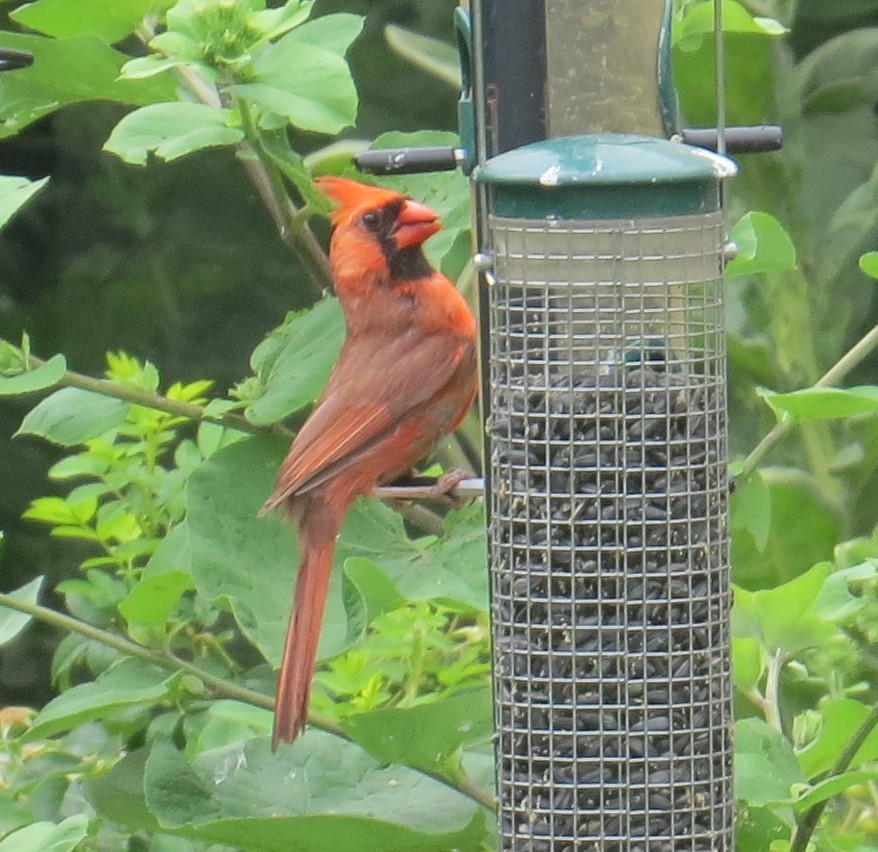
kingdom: Animalia
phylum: Chordata
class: Aves
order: Passeriformes
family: Cardinalidae
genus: Cardinalis
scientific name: Cardinalis cardinalis
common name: Northern cardinal
